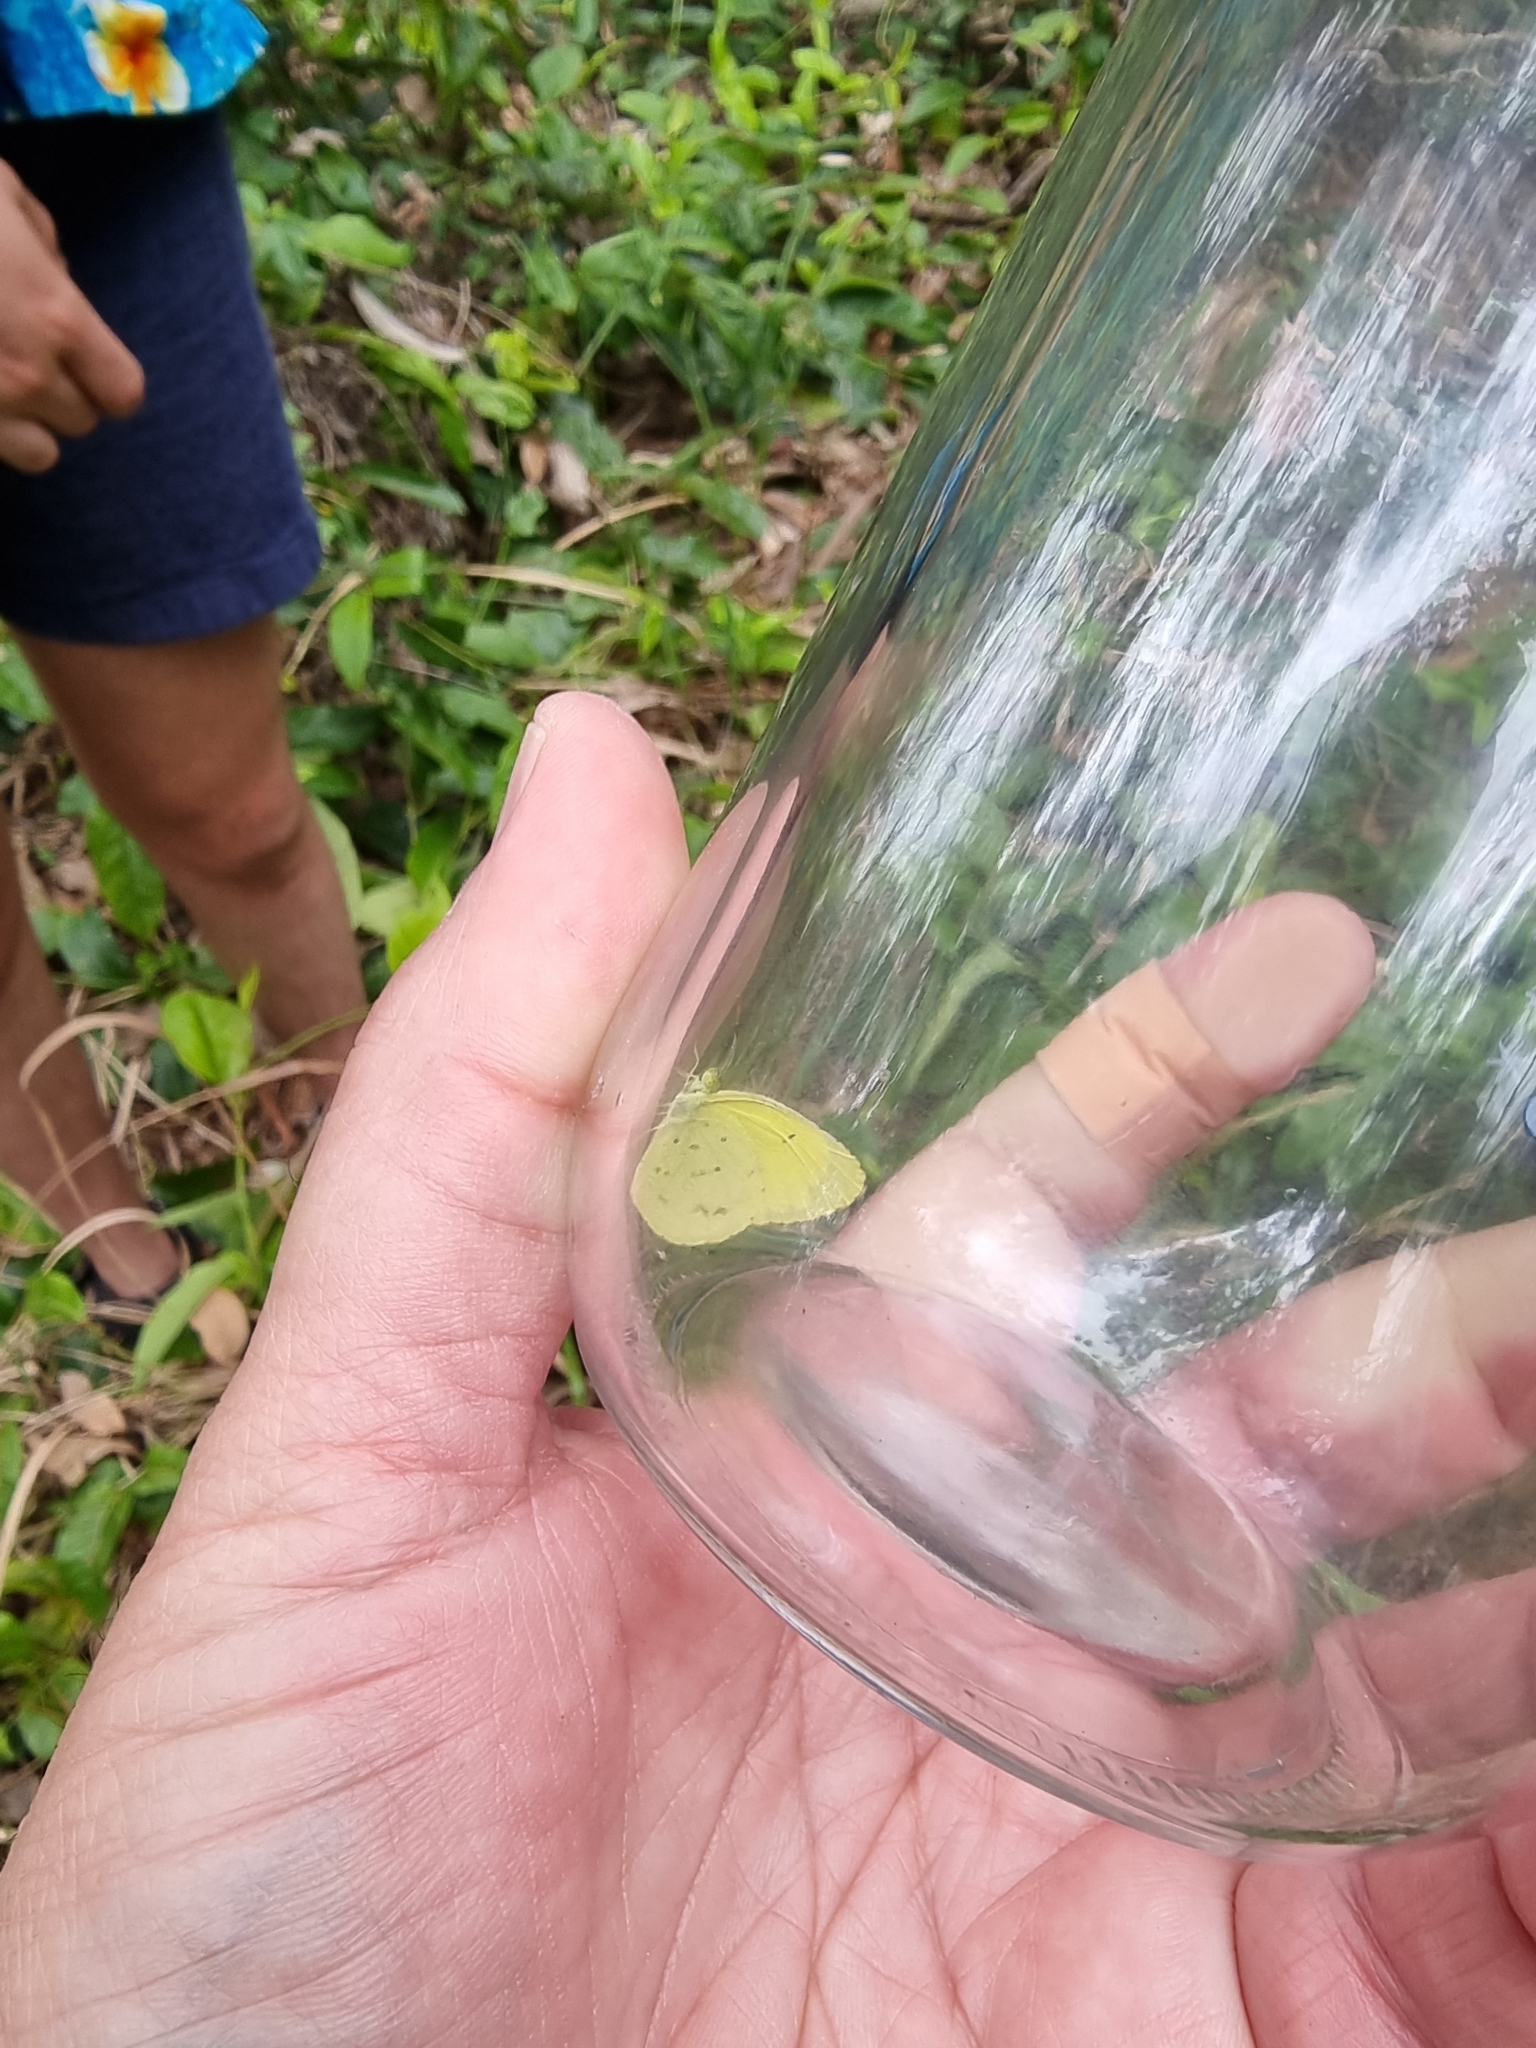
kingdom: Animalia
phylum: Arthropoda
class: Insecta
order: Lepidoptera
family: Pieridae
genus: Eurema
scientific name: Eurema smilax
